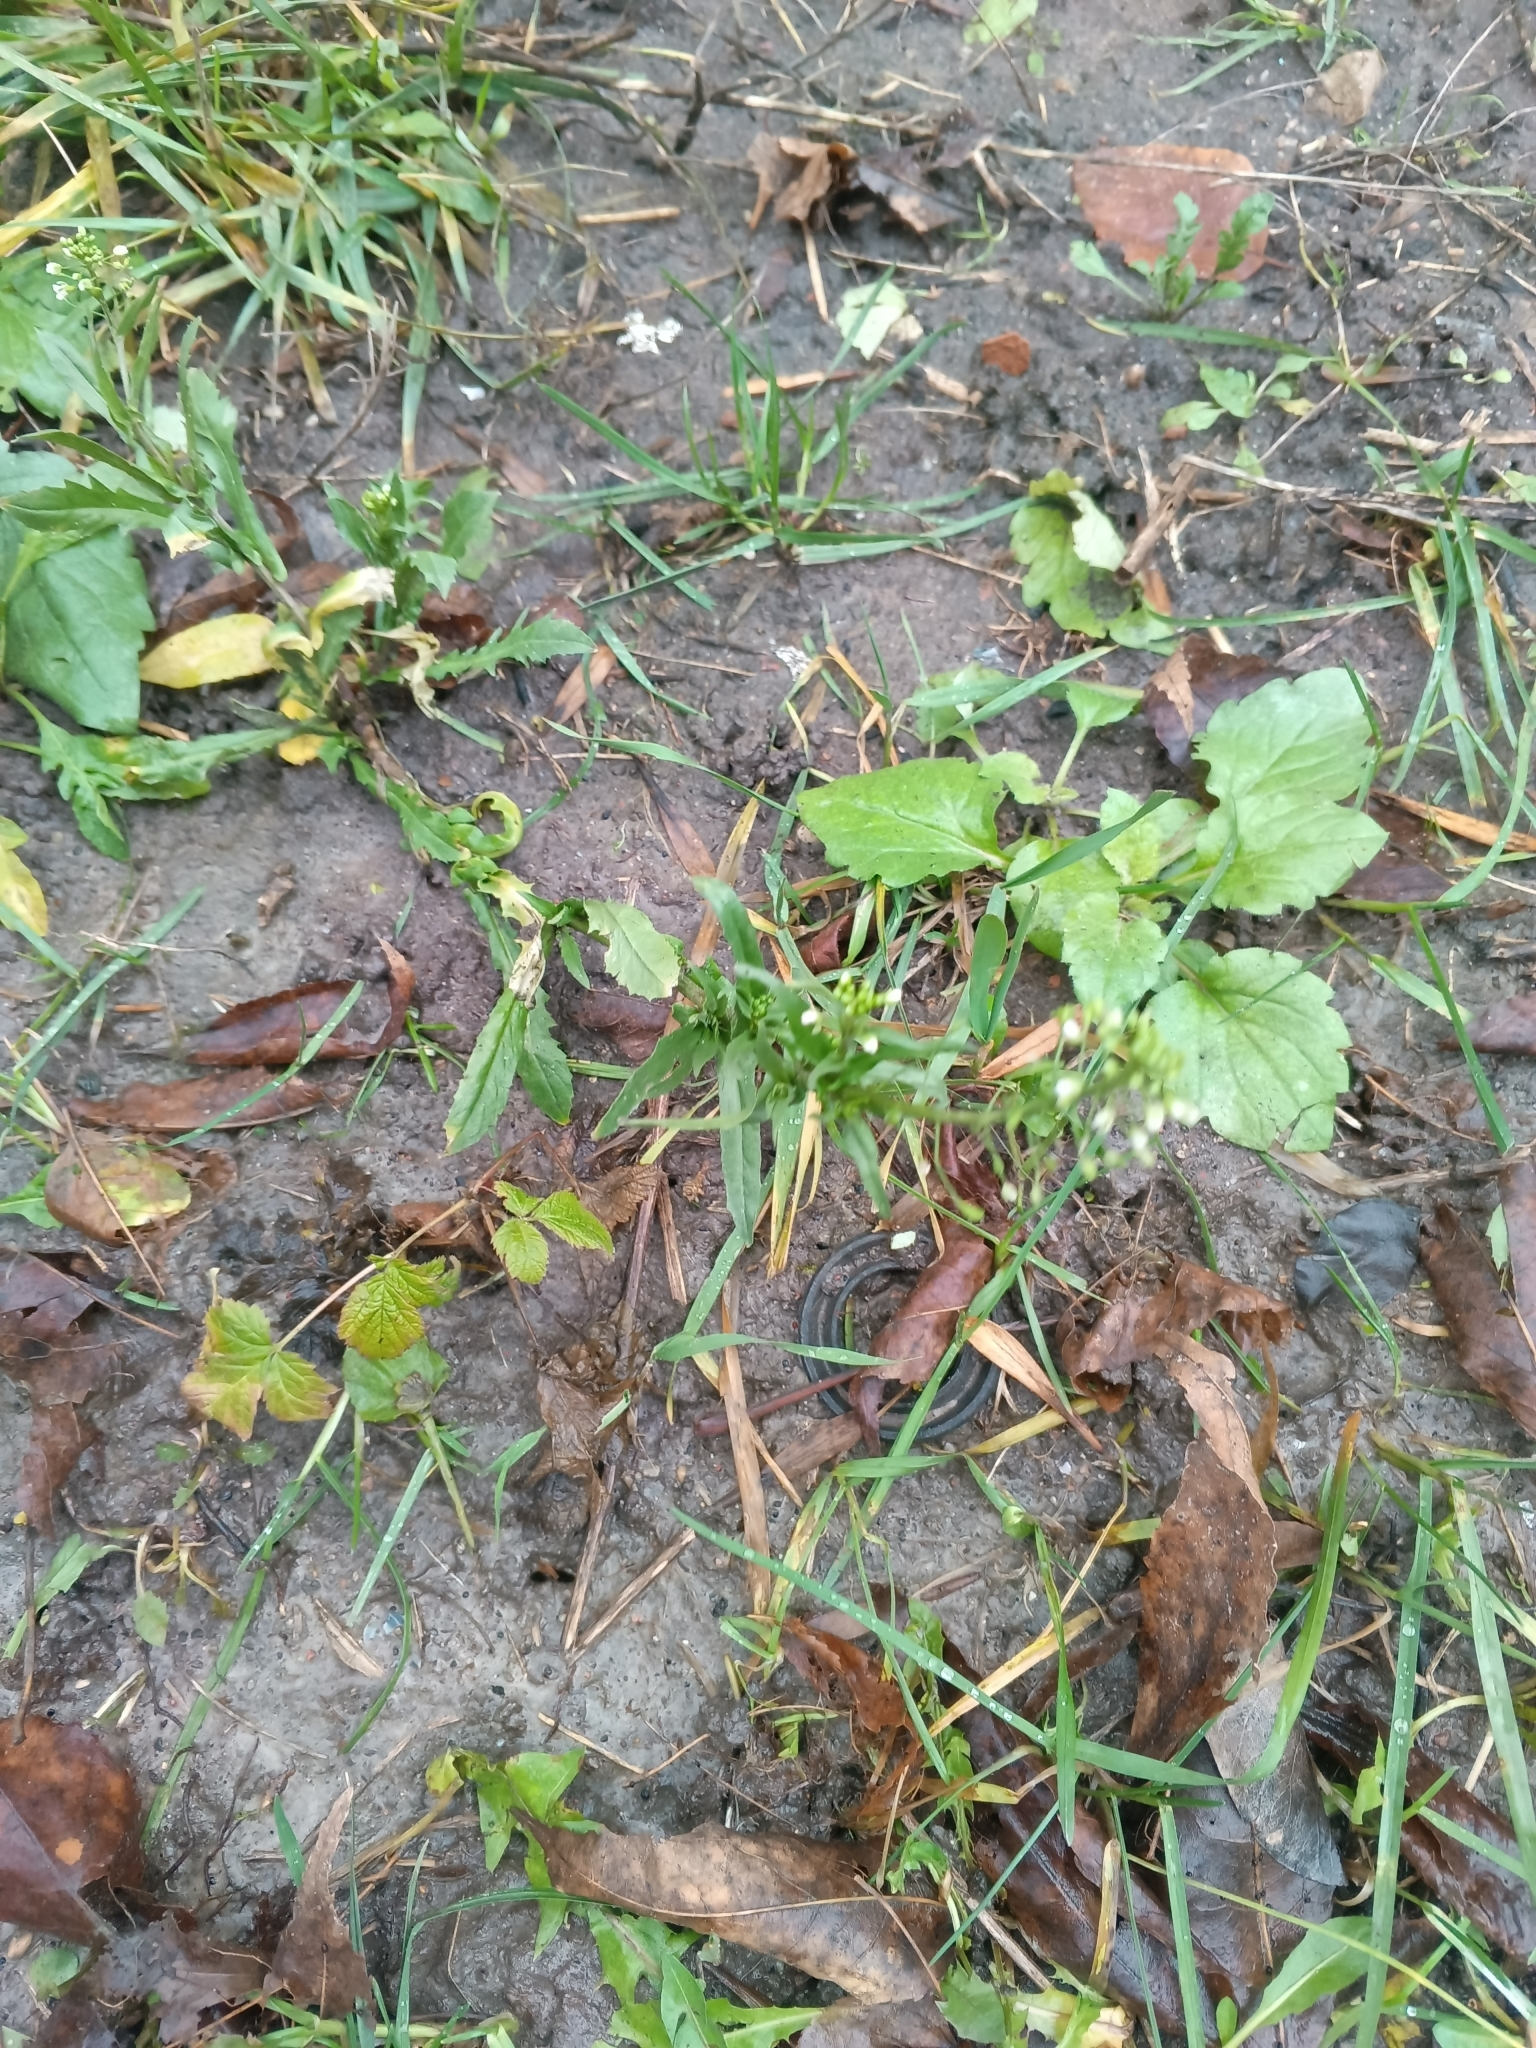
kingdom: Plantae
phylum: Tracheophyta
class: Magnoliopsida
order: Brassicales
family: Brassicaceae
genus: Capsella
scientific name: Capsella bursa-pastoris
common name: Shepherd's purse
